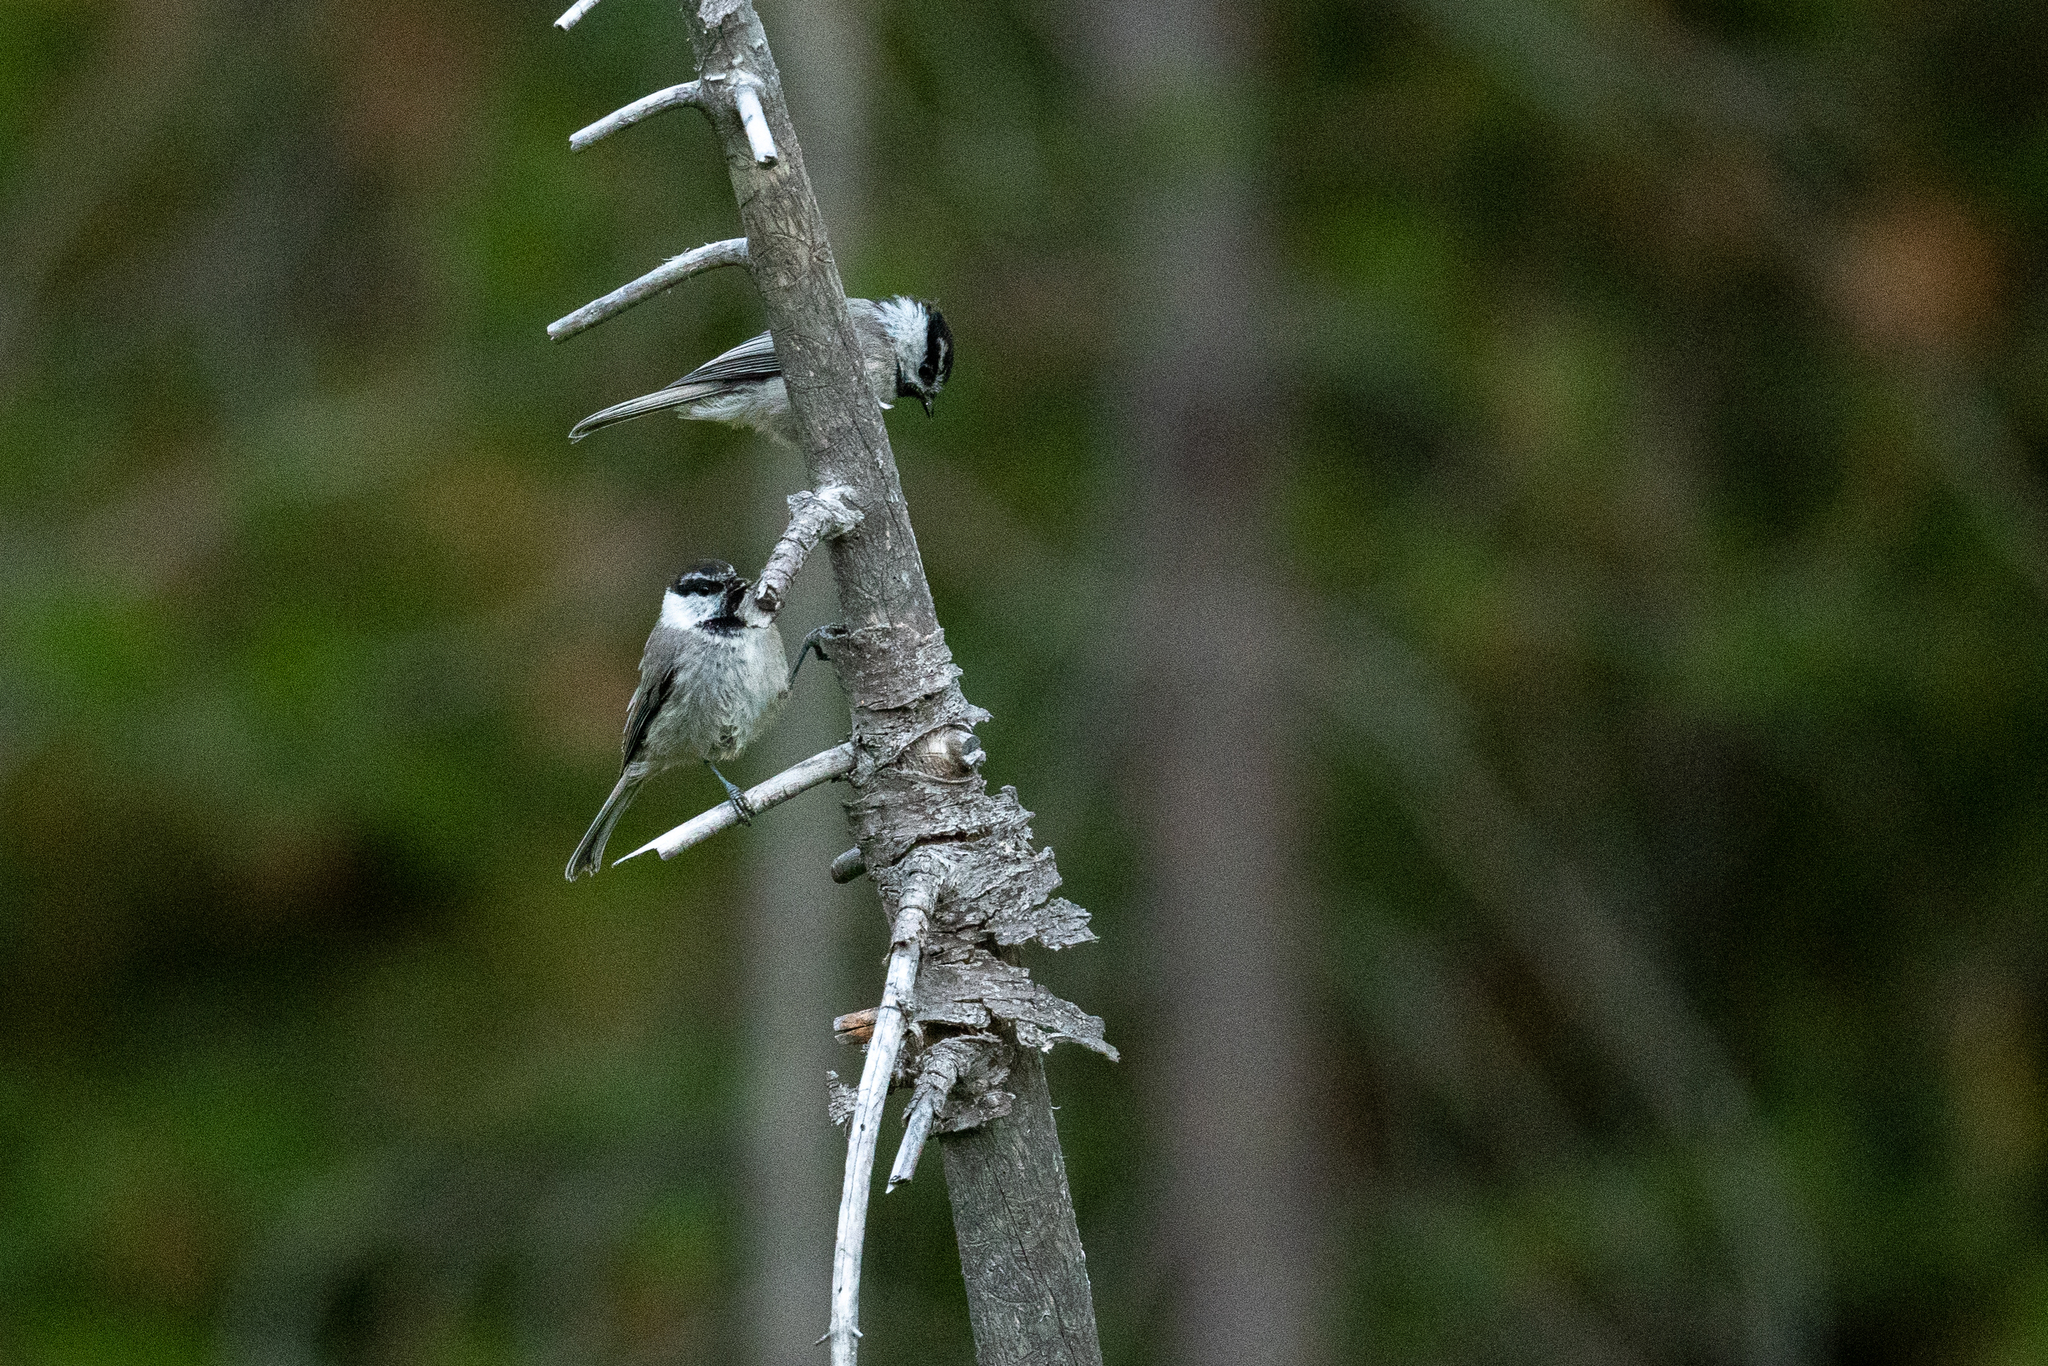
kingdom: Animalia
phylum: Chordata
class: Aves
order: Passeriformes
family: Paridae
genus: Poecile
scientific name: Poecile gambeli
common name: Mountain chickadee
